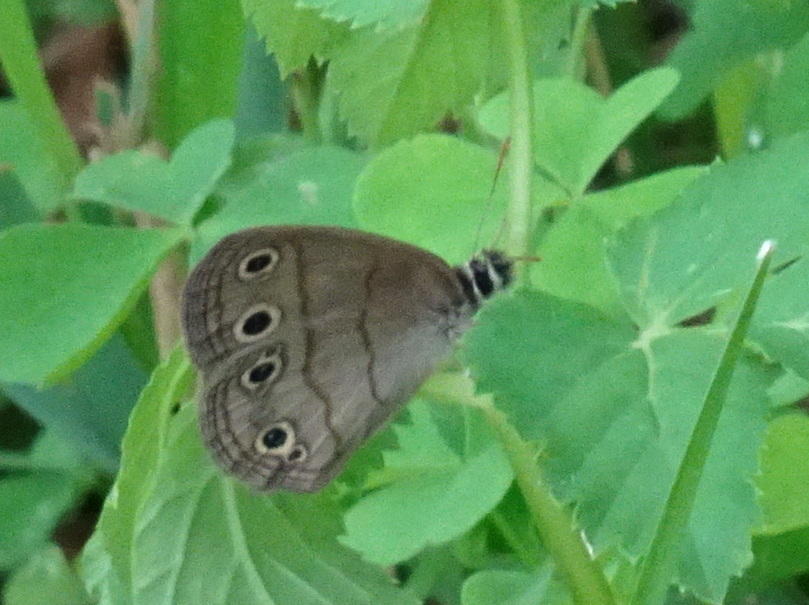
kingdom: Animalia
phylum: Arthropoda
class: Insecta
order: Lepidoptera
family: Nymphalidae
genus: Euptychia
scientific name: Euptychia cymela
